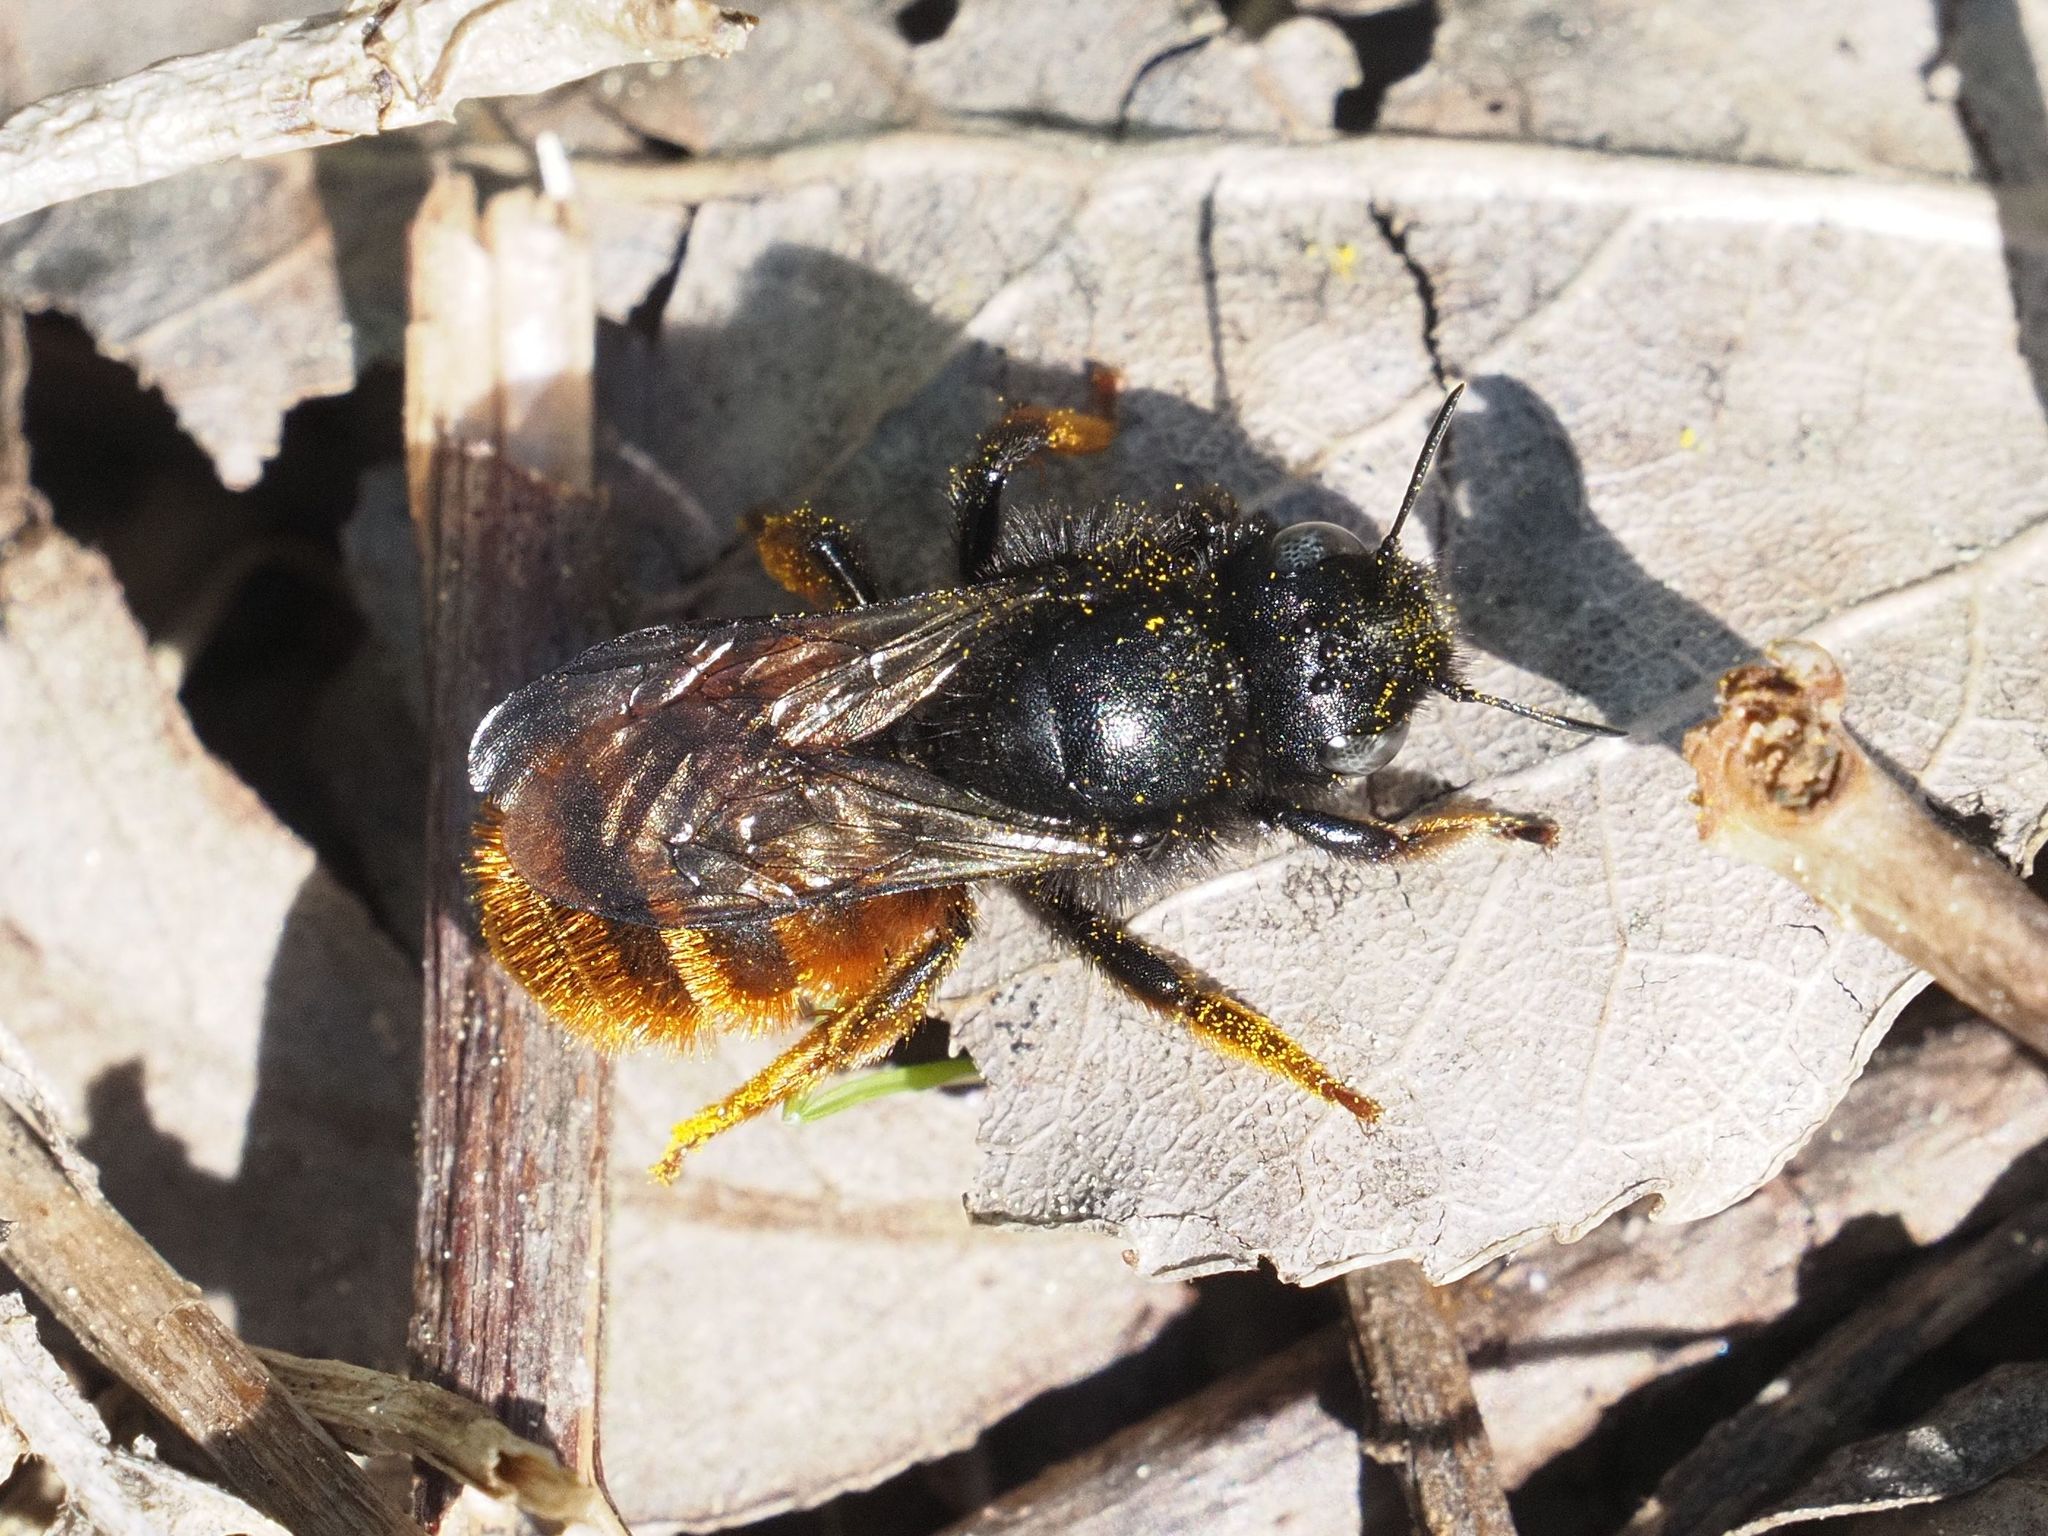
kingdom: Animalia
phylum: Arthropoda
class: Insecta
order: Hymenoptera
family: Megachilidae
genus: Osmia
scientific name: Osmia bicolor
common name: Red-tailed mason bee
